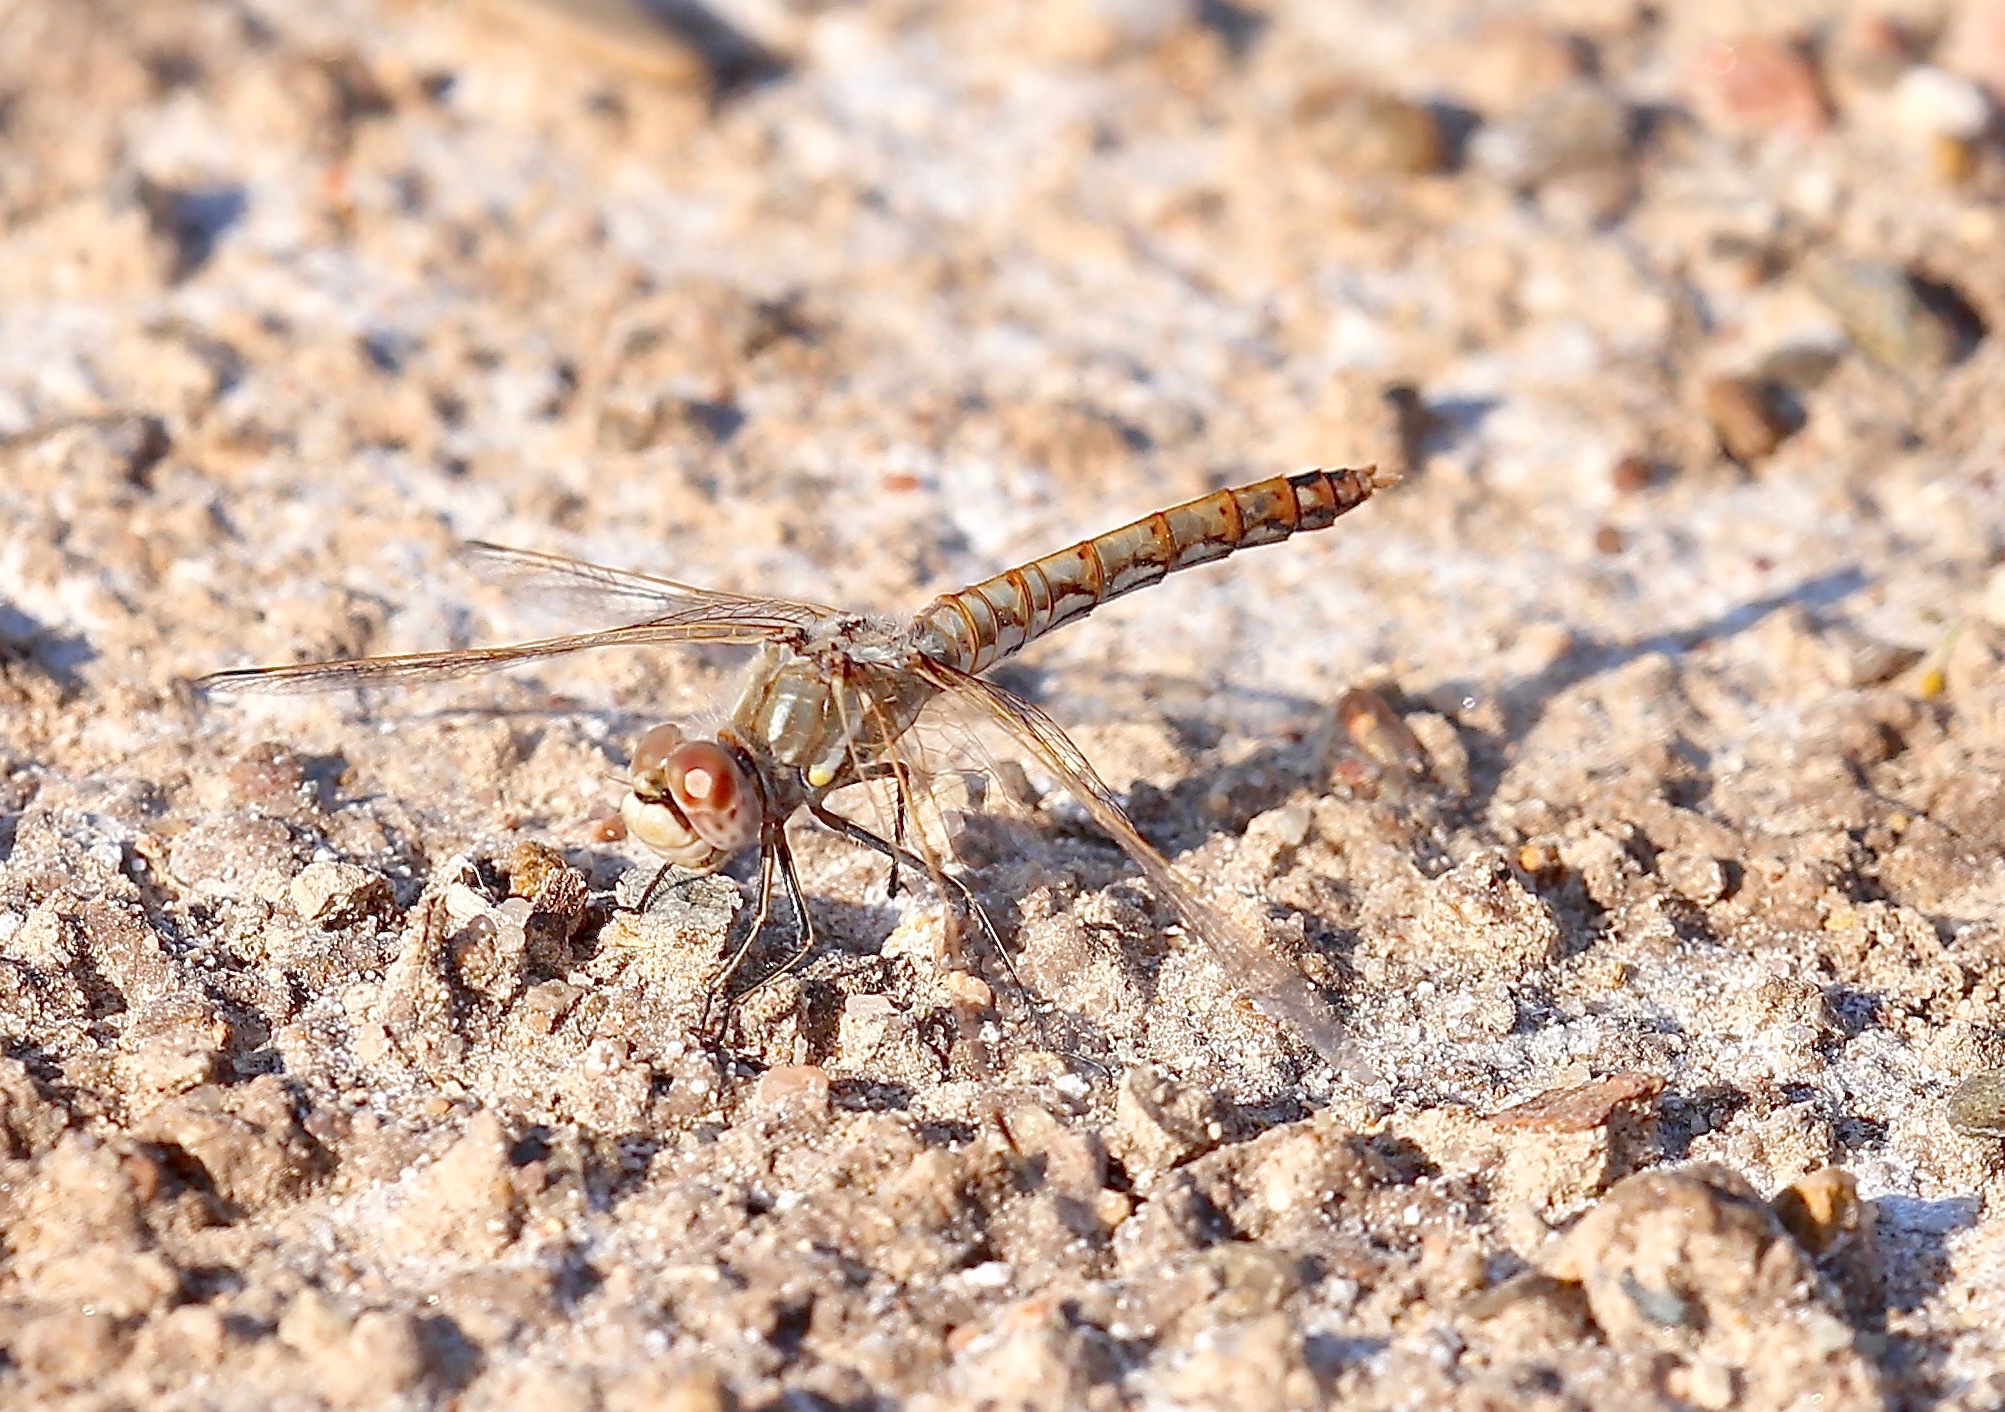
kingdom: Animalia
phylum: Arthropoda
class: Insecta
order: Odonata
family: Libellulidae
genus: Sympetrum
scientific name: Sympetrum corruptum
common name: Variegated meadowhawk
